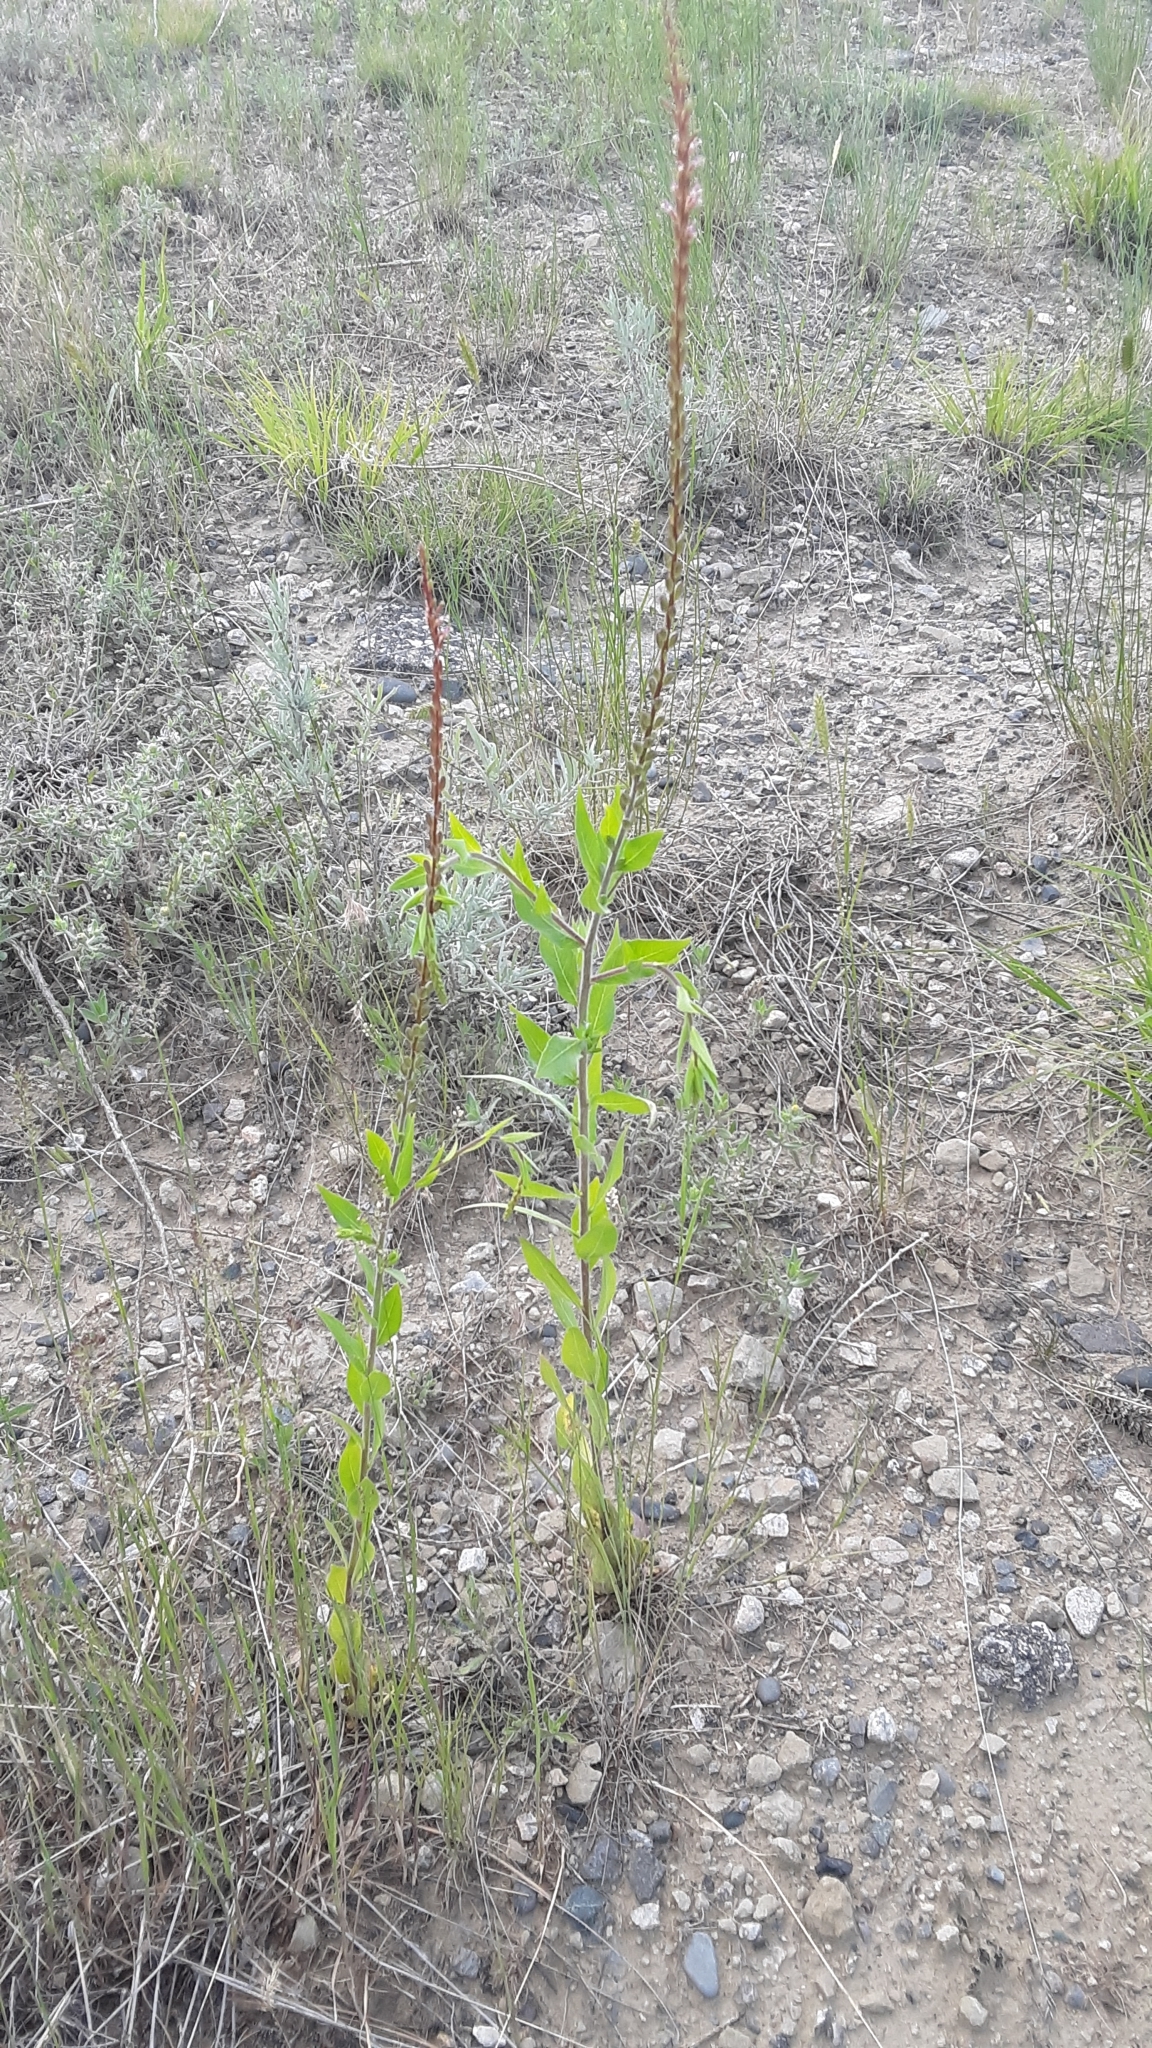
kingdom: Plantae
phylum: Tracheophyta
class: Magnoliopsida
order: Myrtales
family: Onagraceae
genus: Oenothera
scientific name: Oenothera curtiflora
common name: Velvetweed
